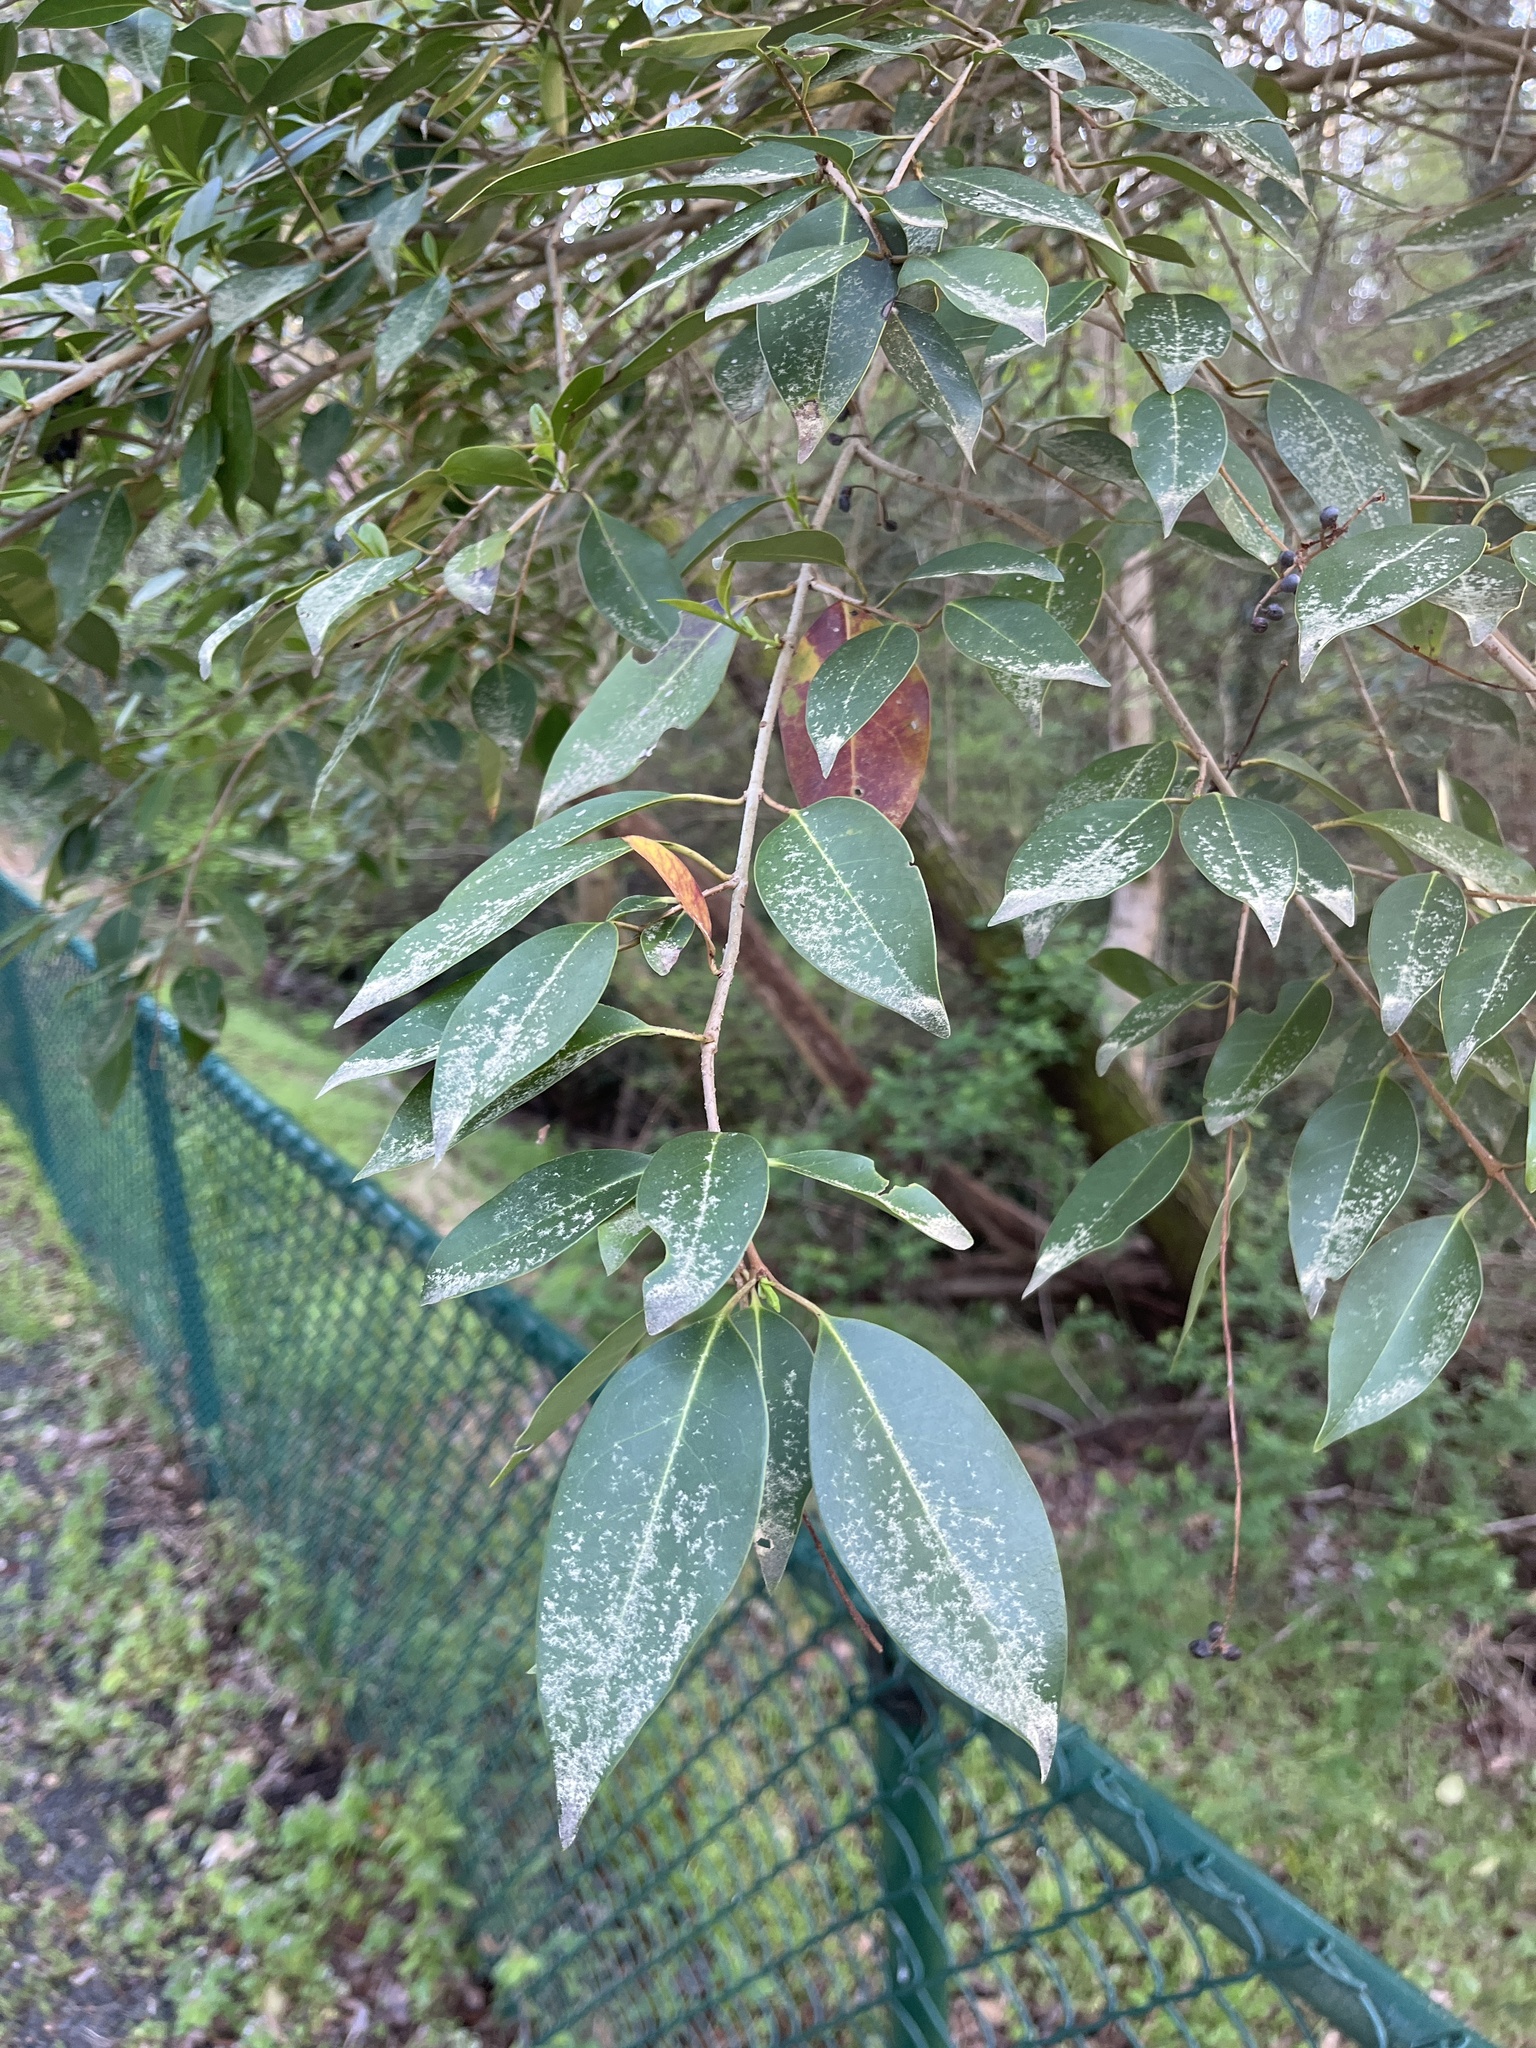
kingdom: Plantae
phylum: Tracheophyta
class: Magnoliopsida
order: Lamiales
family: Oleaceae
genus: Ligustrum
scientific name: Ligustrum lucidum
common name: Glossy privet
